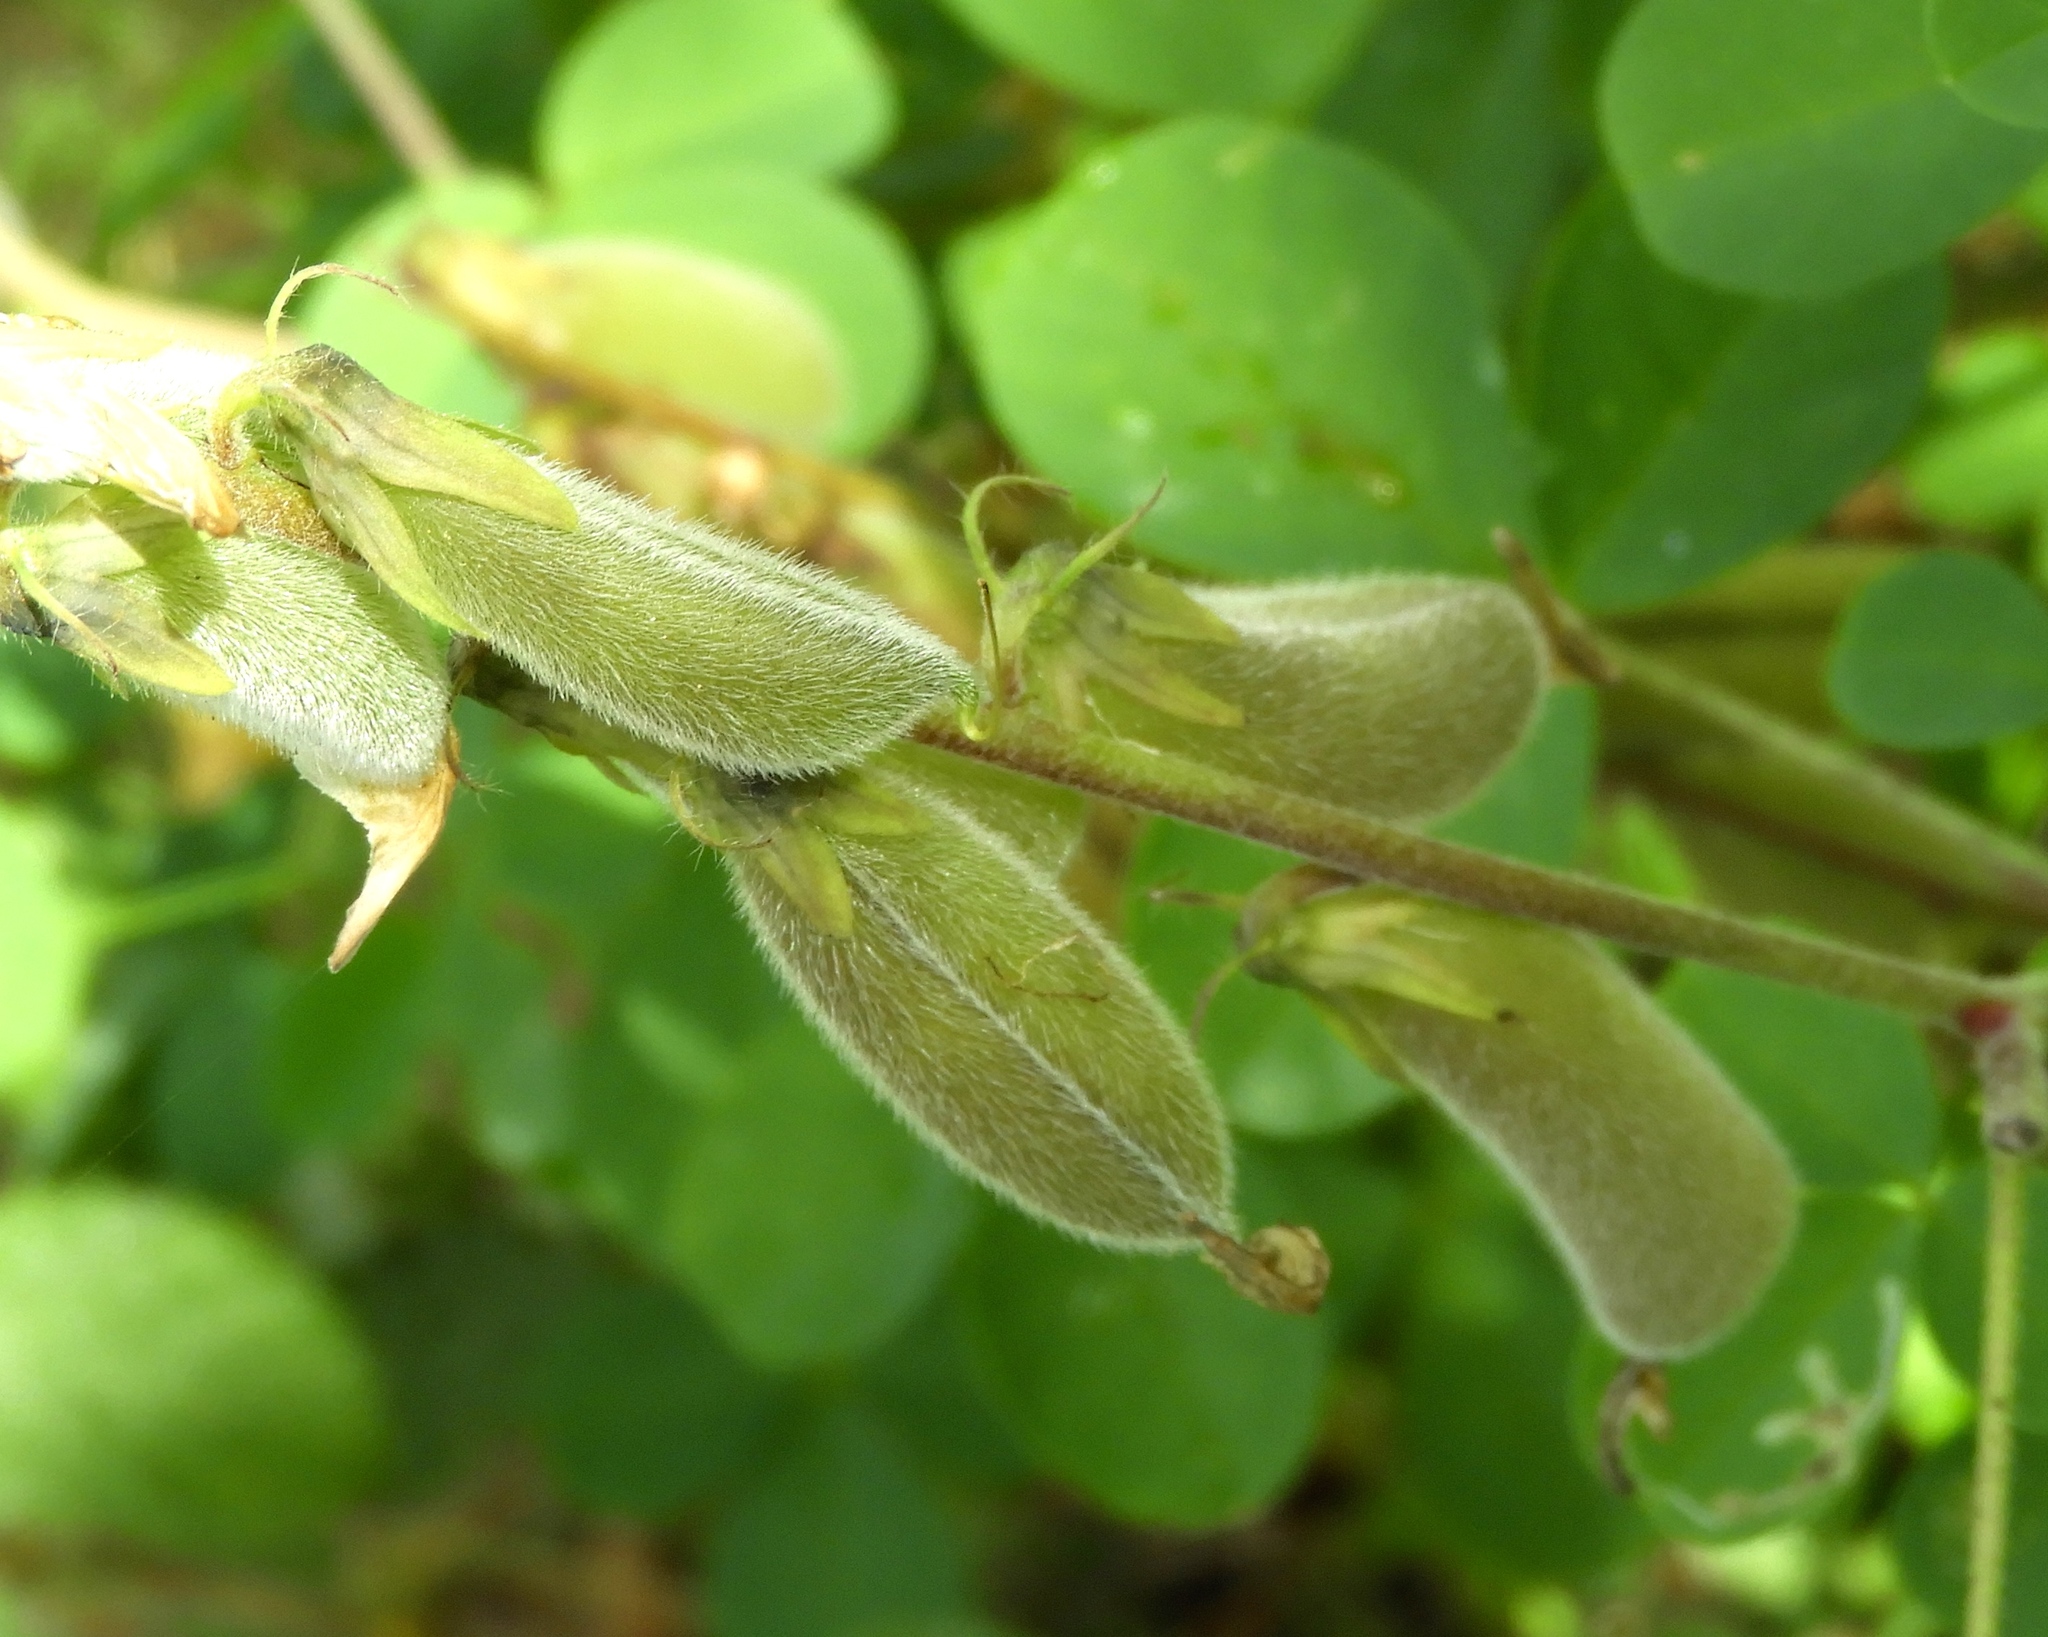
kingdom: Plantae
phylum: Tracheophyta
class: Magnoliopsida
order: Fabales
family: Fabaceae
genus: Crotalaria
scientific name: Crotalaria incana
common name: Shakeshake
